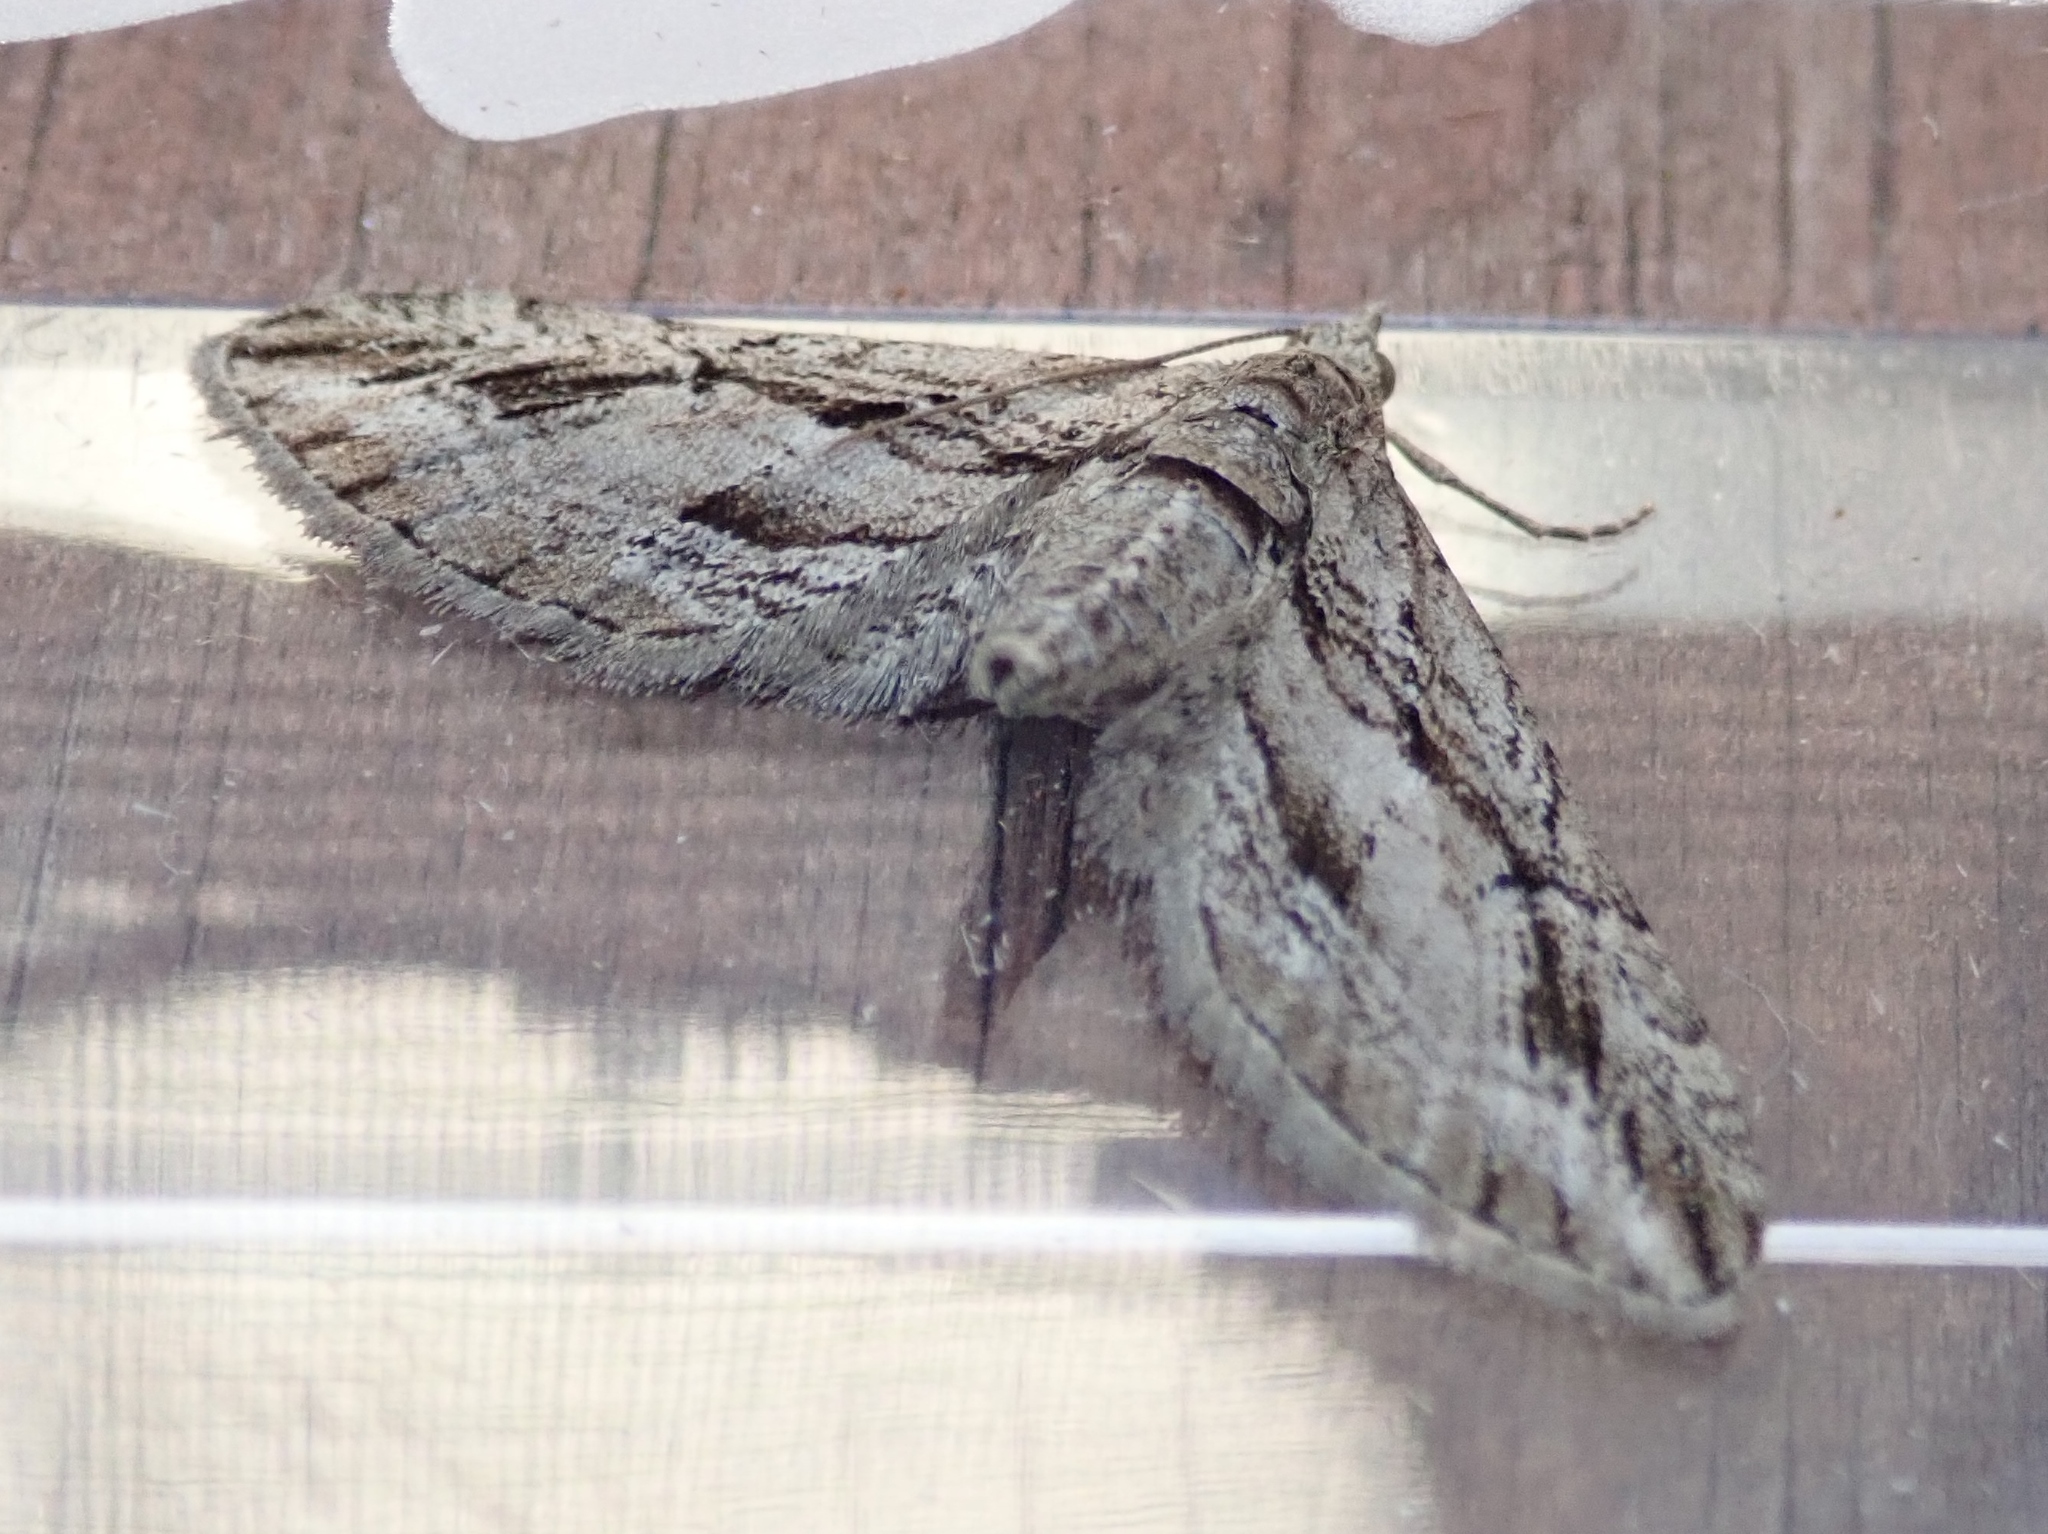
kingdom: Animalia
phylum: Arthropoda
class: Insecta
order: Lepidoptera
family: Geometridae
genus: Eupithecia
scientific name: Eupithecia phoeniceata
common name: Cypress pug
